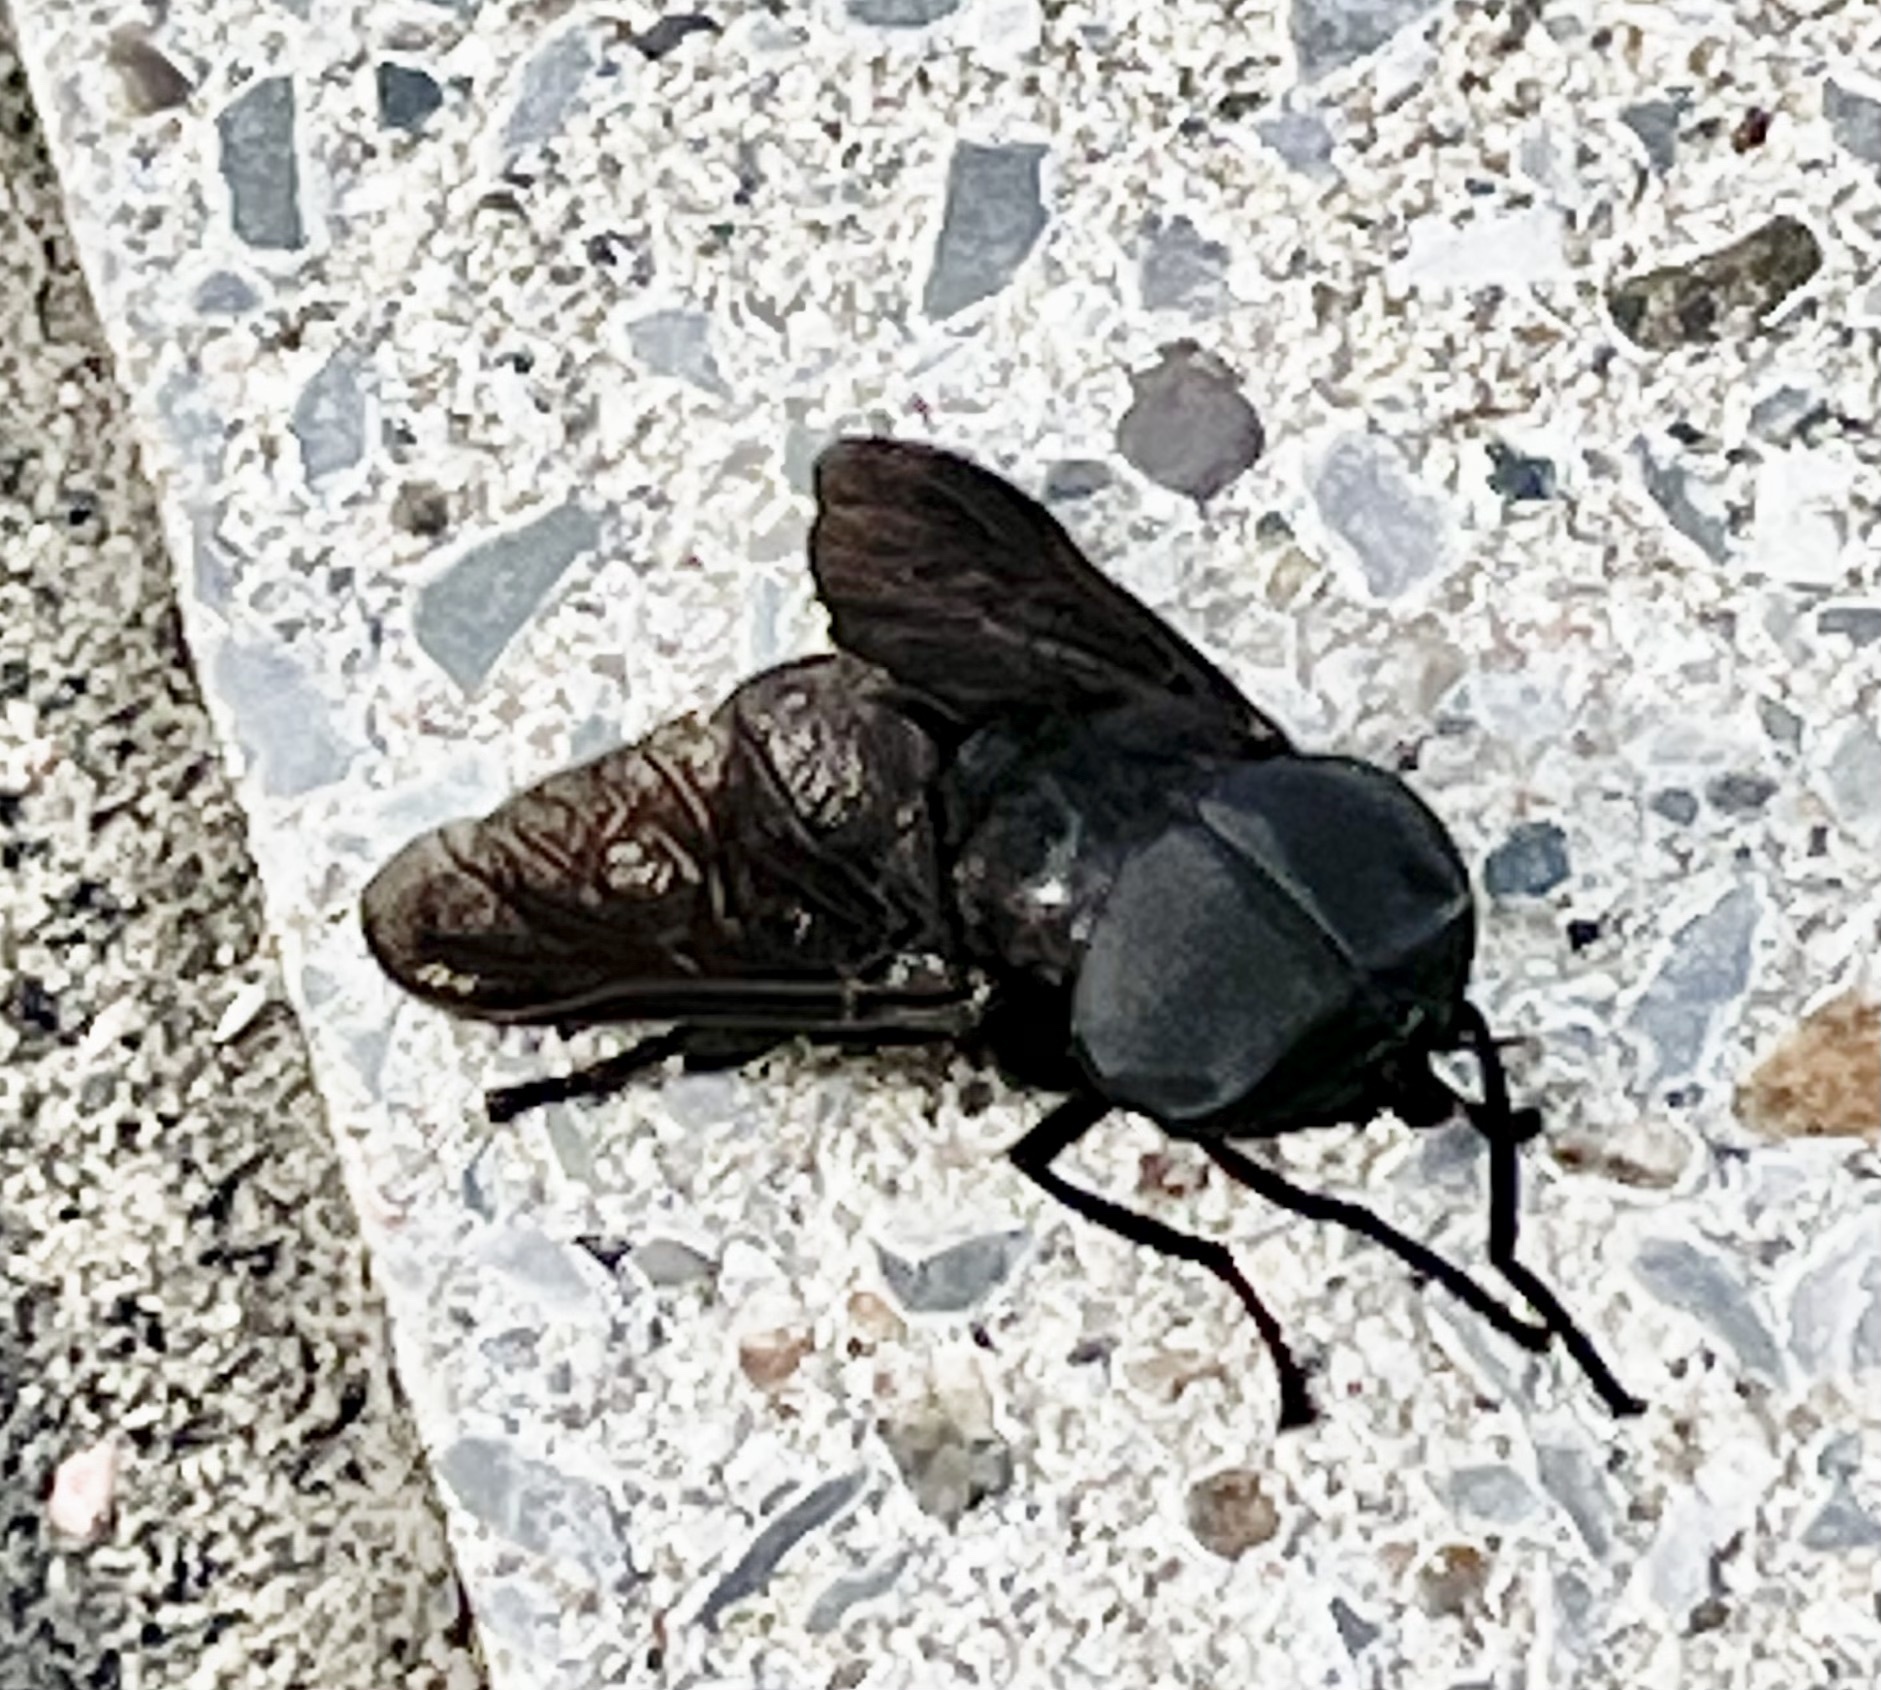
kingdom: Animalia
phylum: Arthropoda
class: Insecta
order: Diptera
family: Tabanidae
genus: Tabanus
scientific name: Tabanus atratus
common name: Black horse fly
